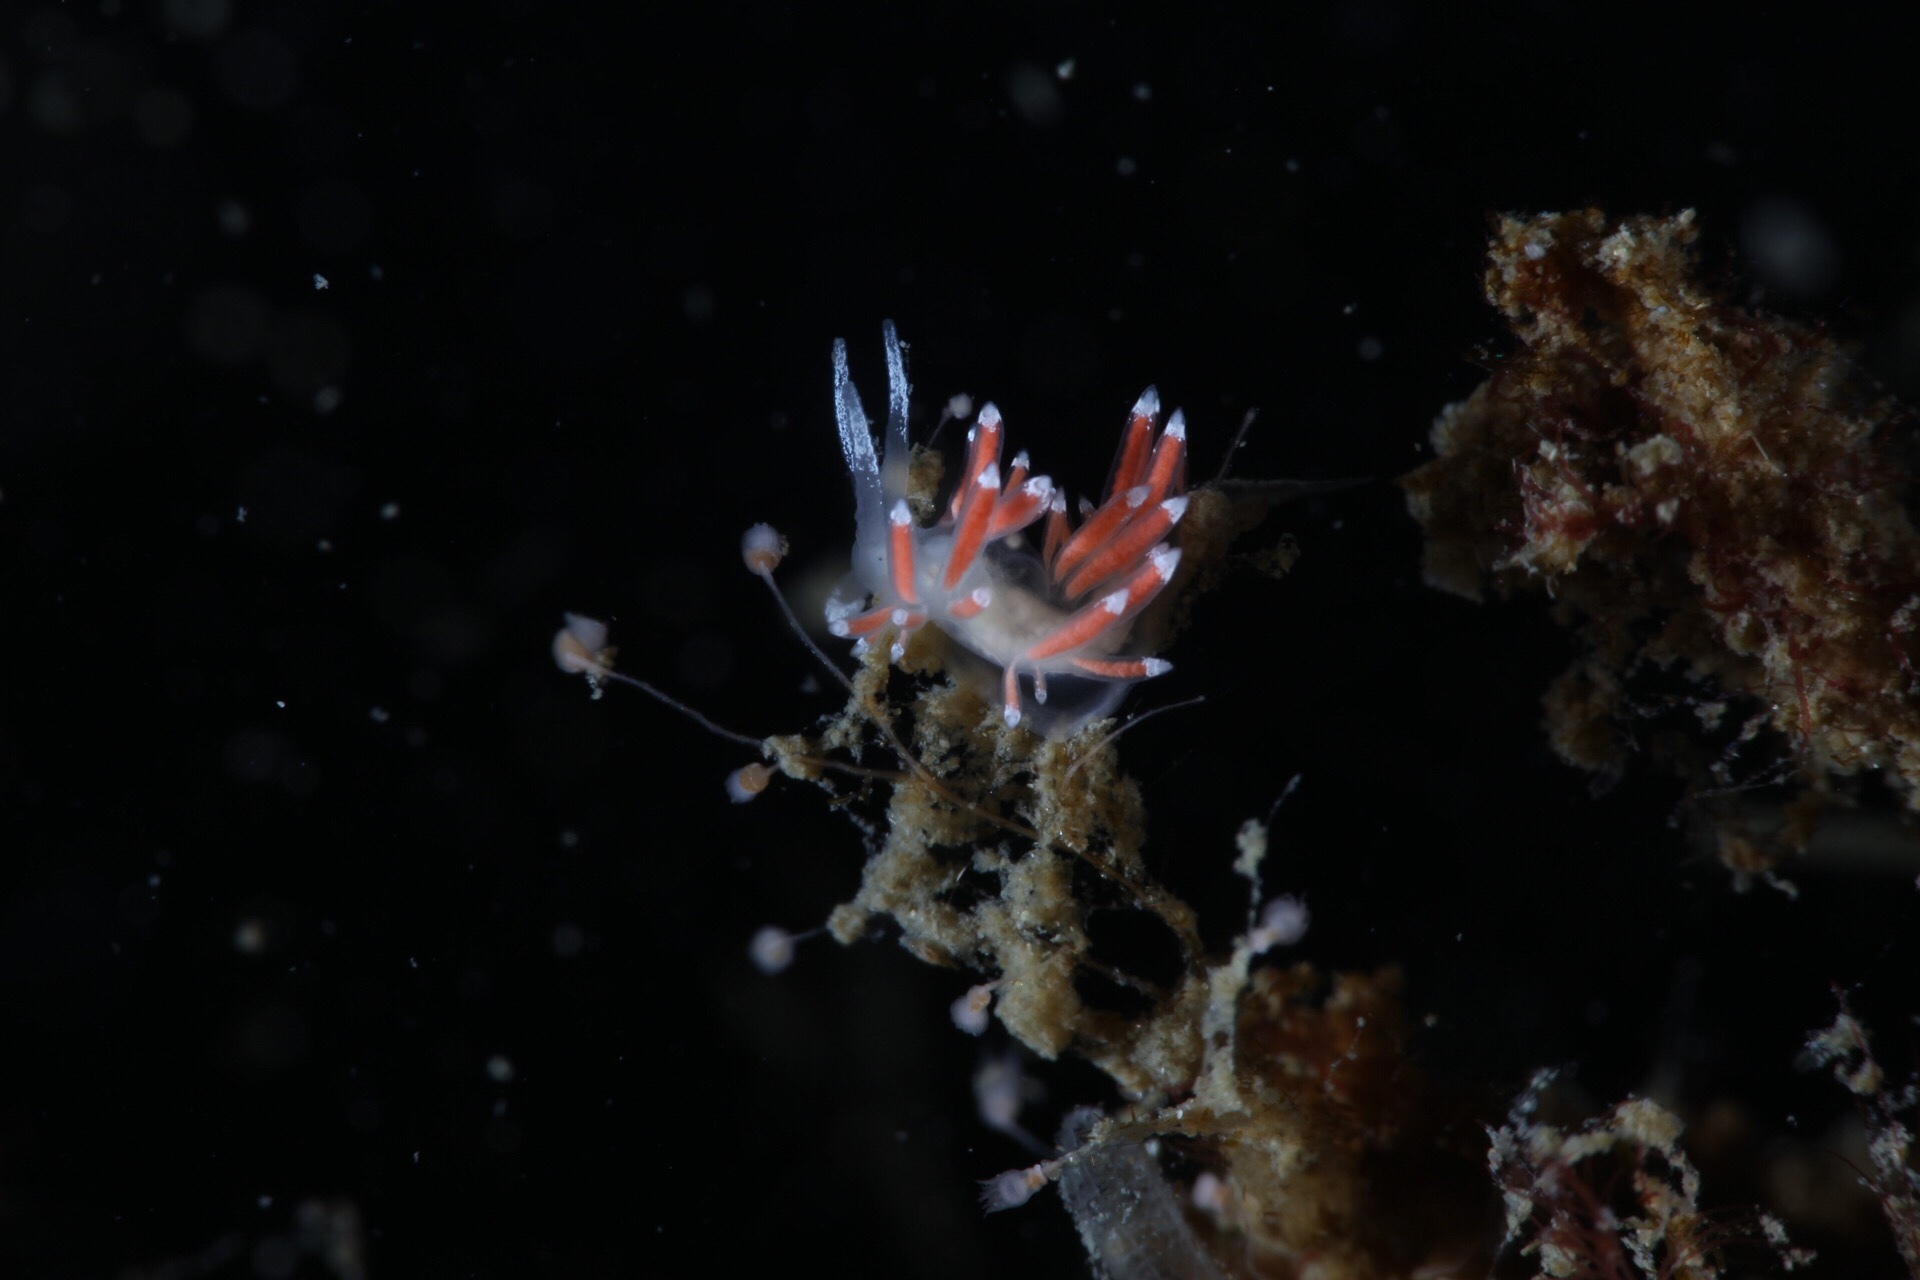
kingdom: Animalia
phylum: Mollusca
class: Gastropoda
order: Nudibranchia
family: Coryphellidae
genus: Coryphella
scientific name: Coryphella gracilis
